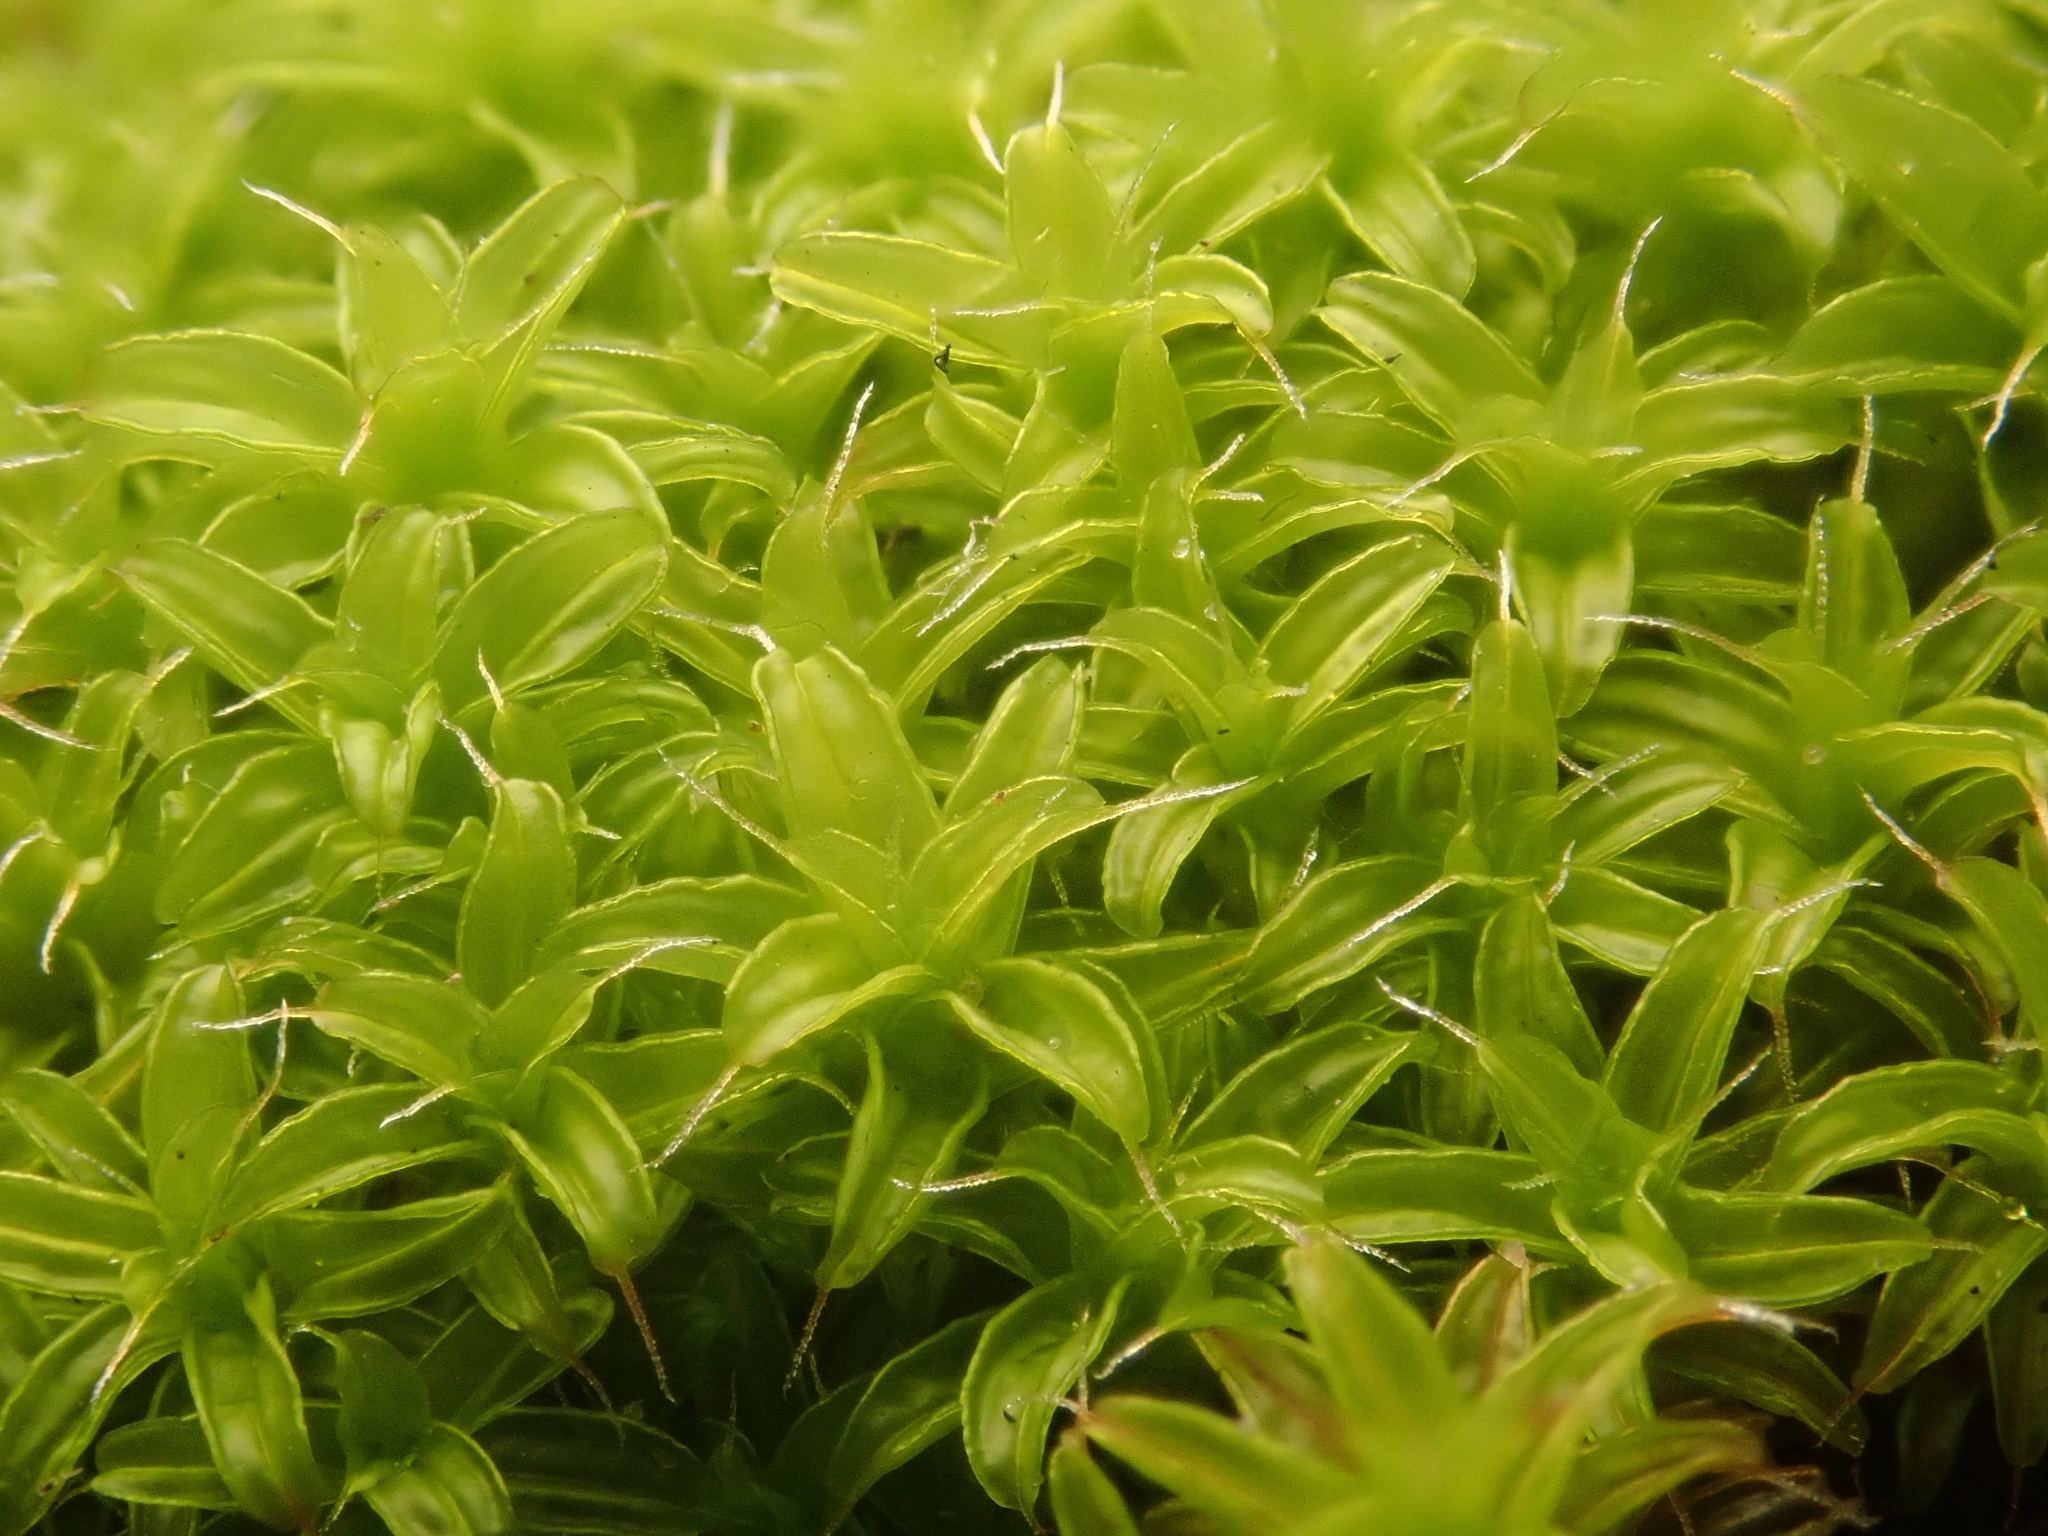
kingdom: Plantae
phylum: Bryophyta
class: Bryopsida
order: Pottiales
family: Pottiaceae
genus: Syntrichia
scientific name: Syntrichia ruralis
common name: Sidewalk screw moss
